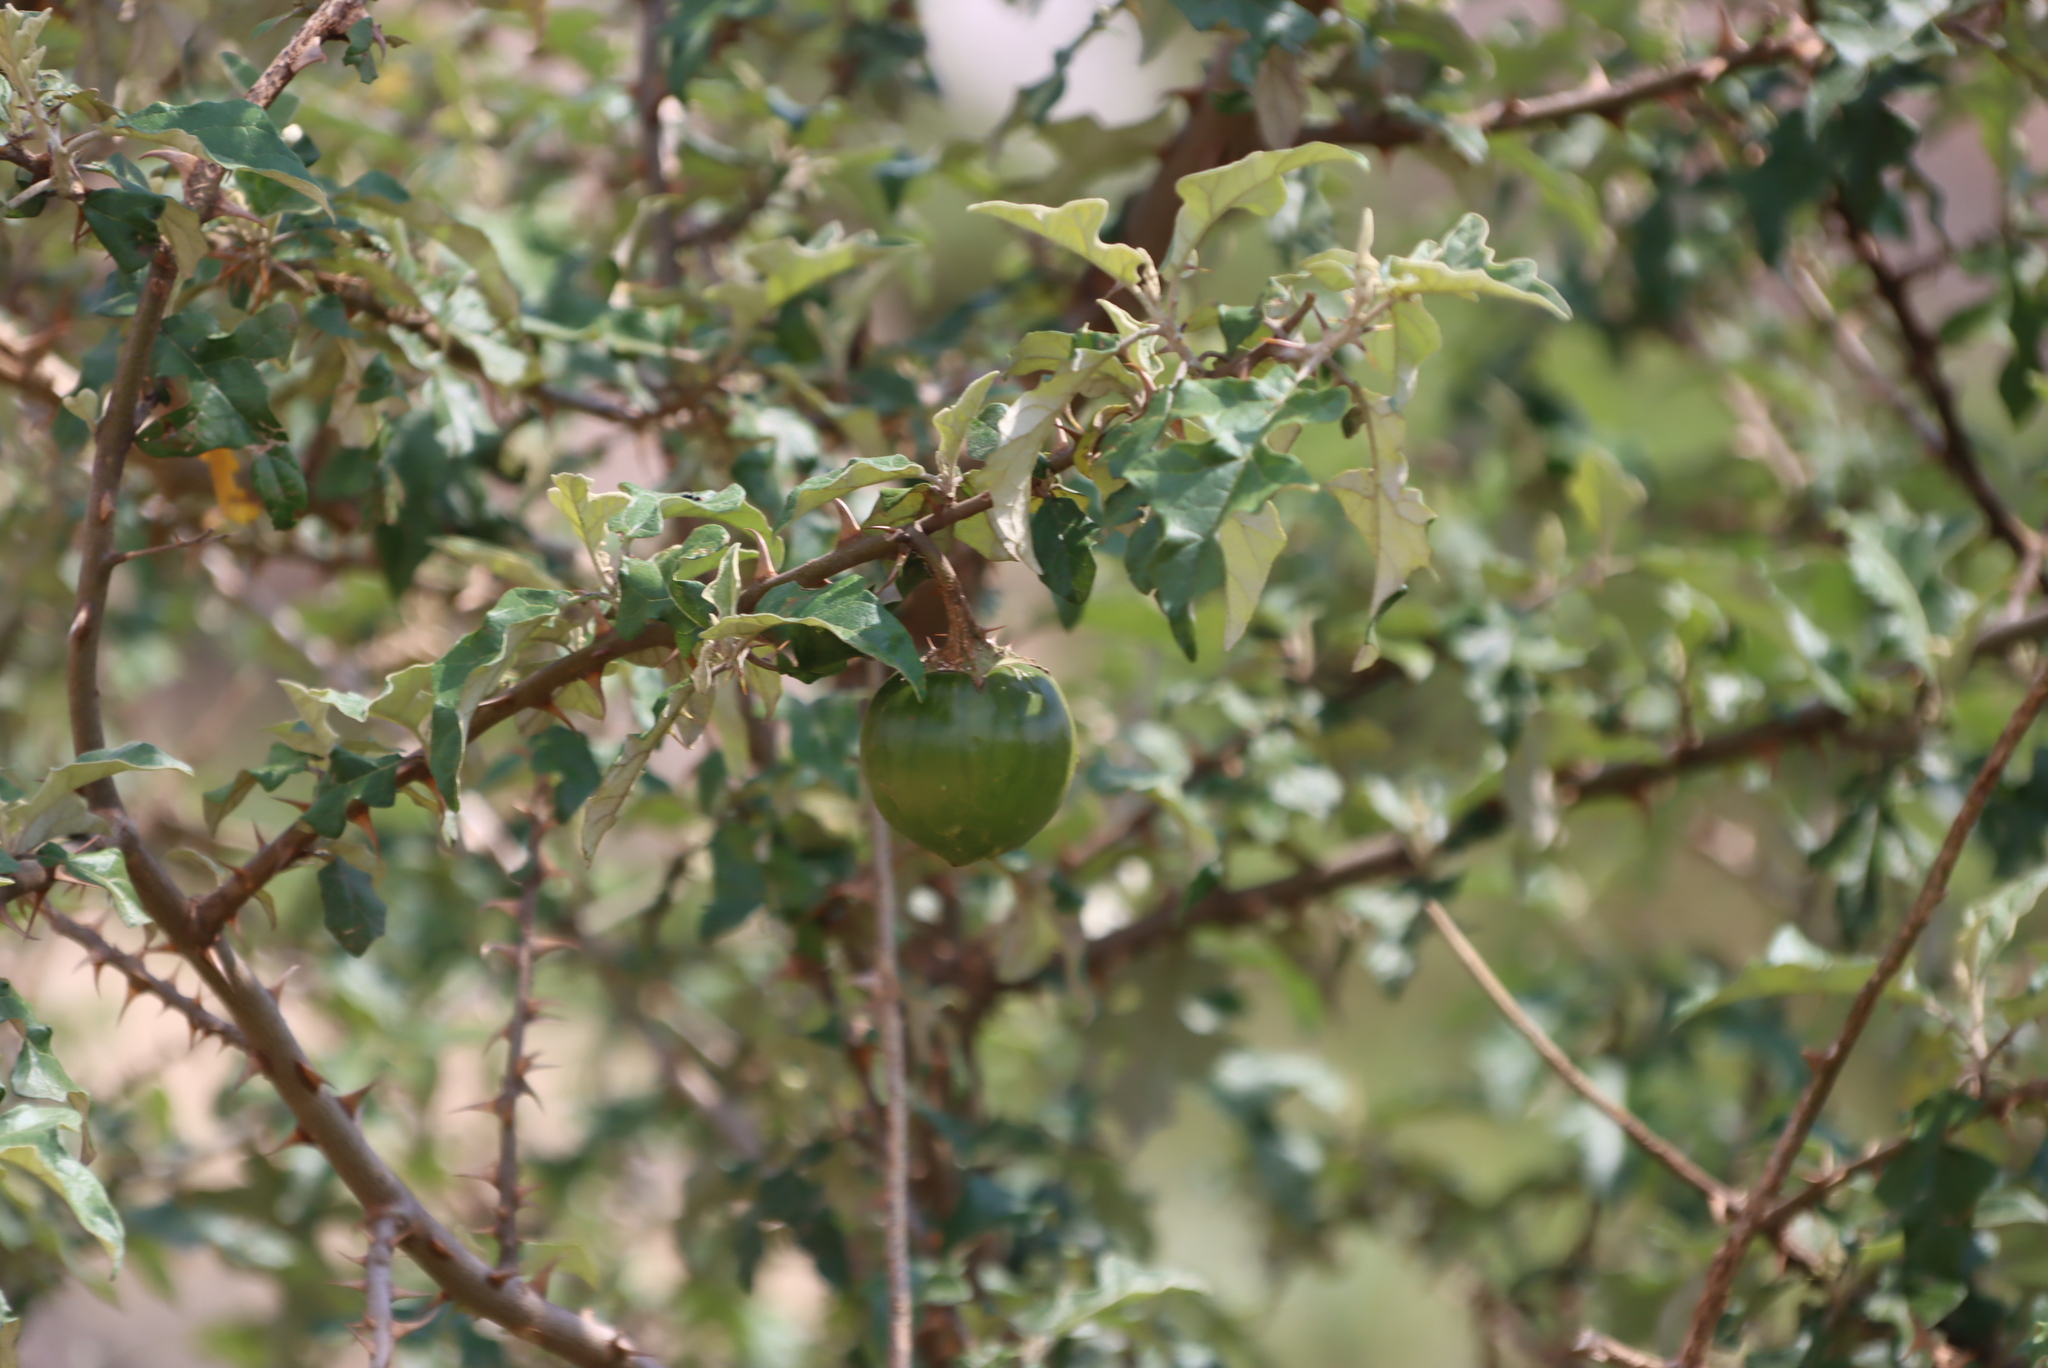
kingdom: Plantae
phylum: Tracheophyta
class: Magnoliopsida
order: Solanales
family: Solanaceae
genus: Solanum
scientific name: Solanum aculeastrum
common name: Goat bitter-apple
